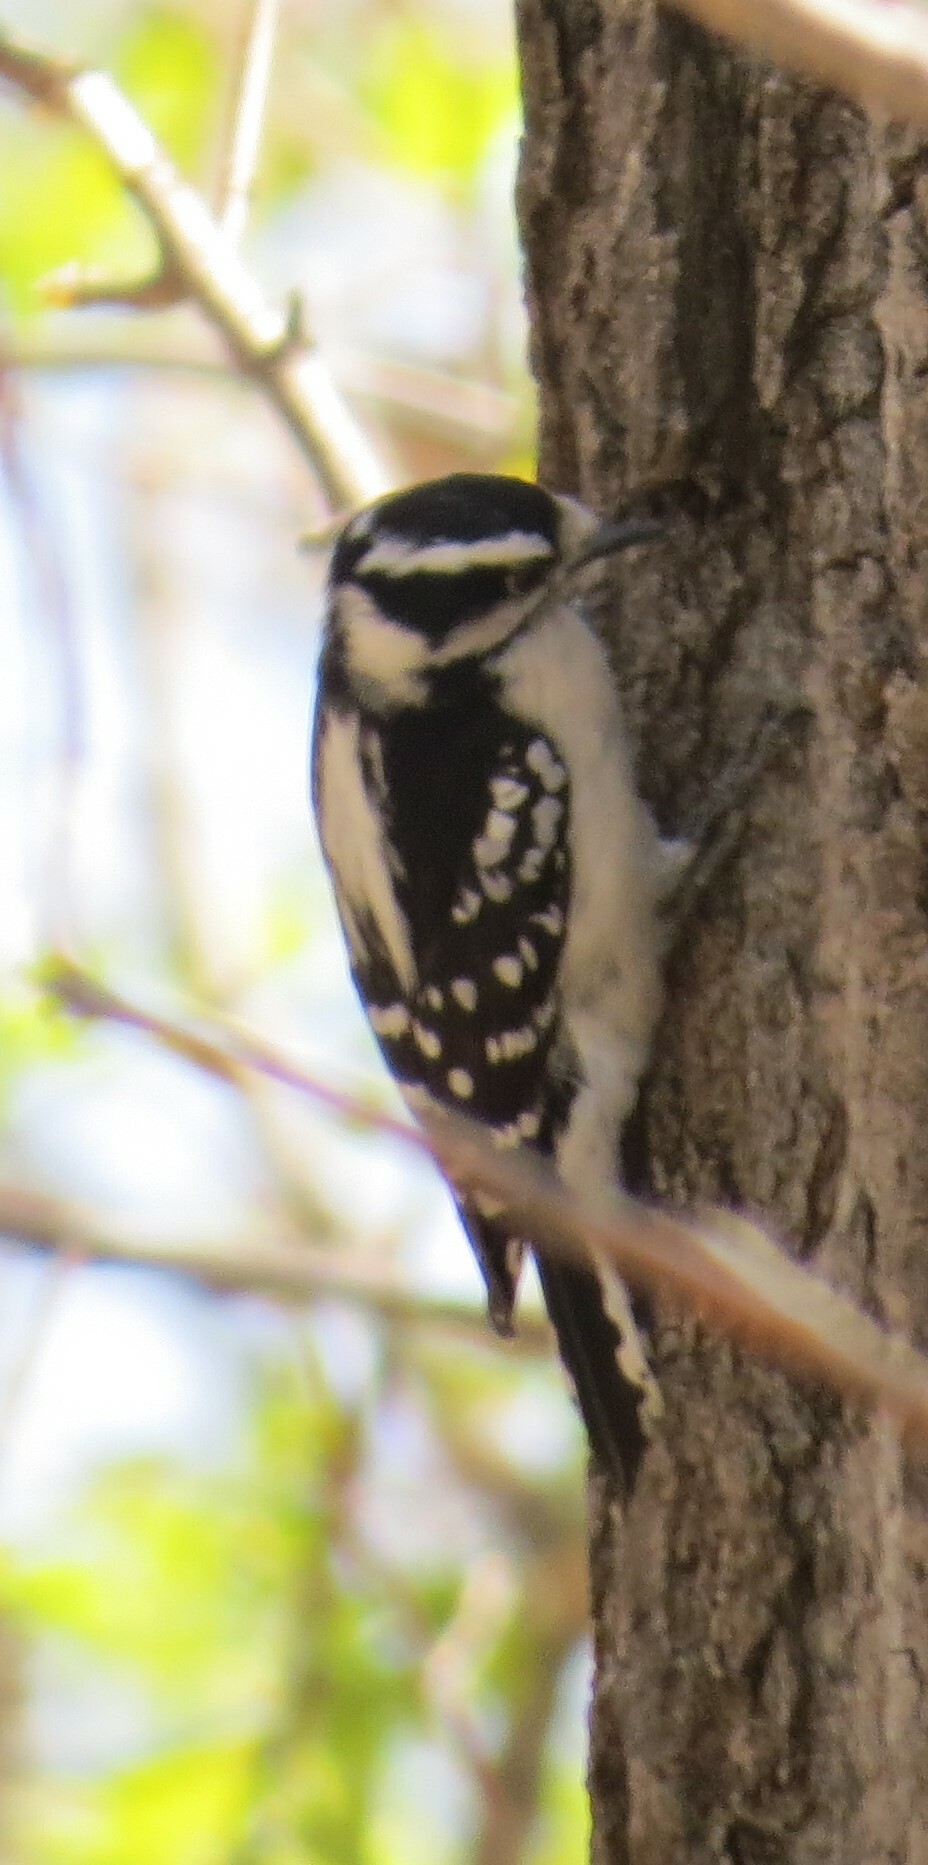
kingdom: Animalia
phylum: Chordata
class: Aves
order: Piciformes
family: Picidae
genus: Dryobates
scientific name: Dryobates pubescens
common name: Downy woodpecker
